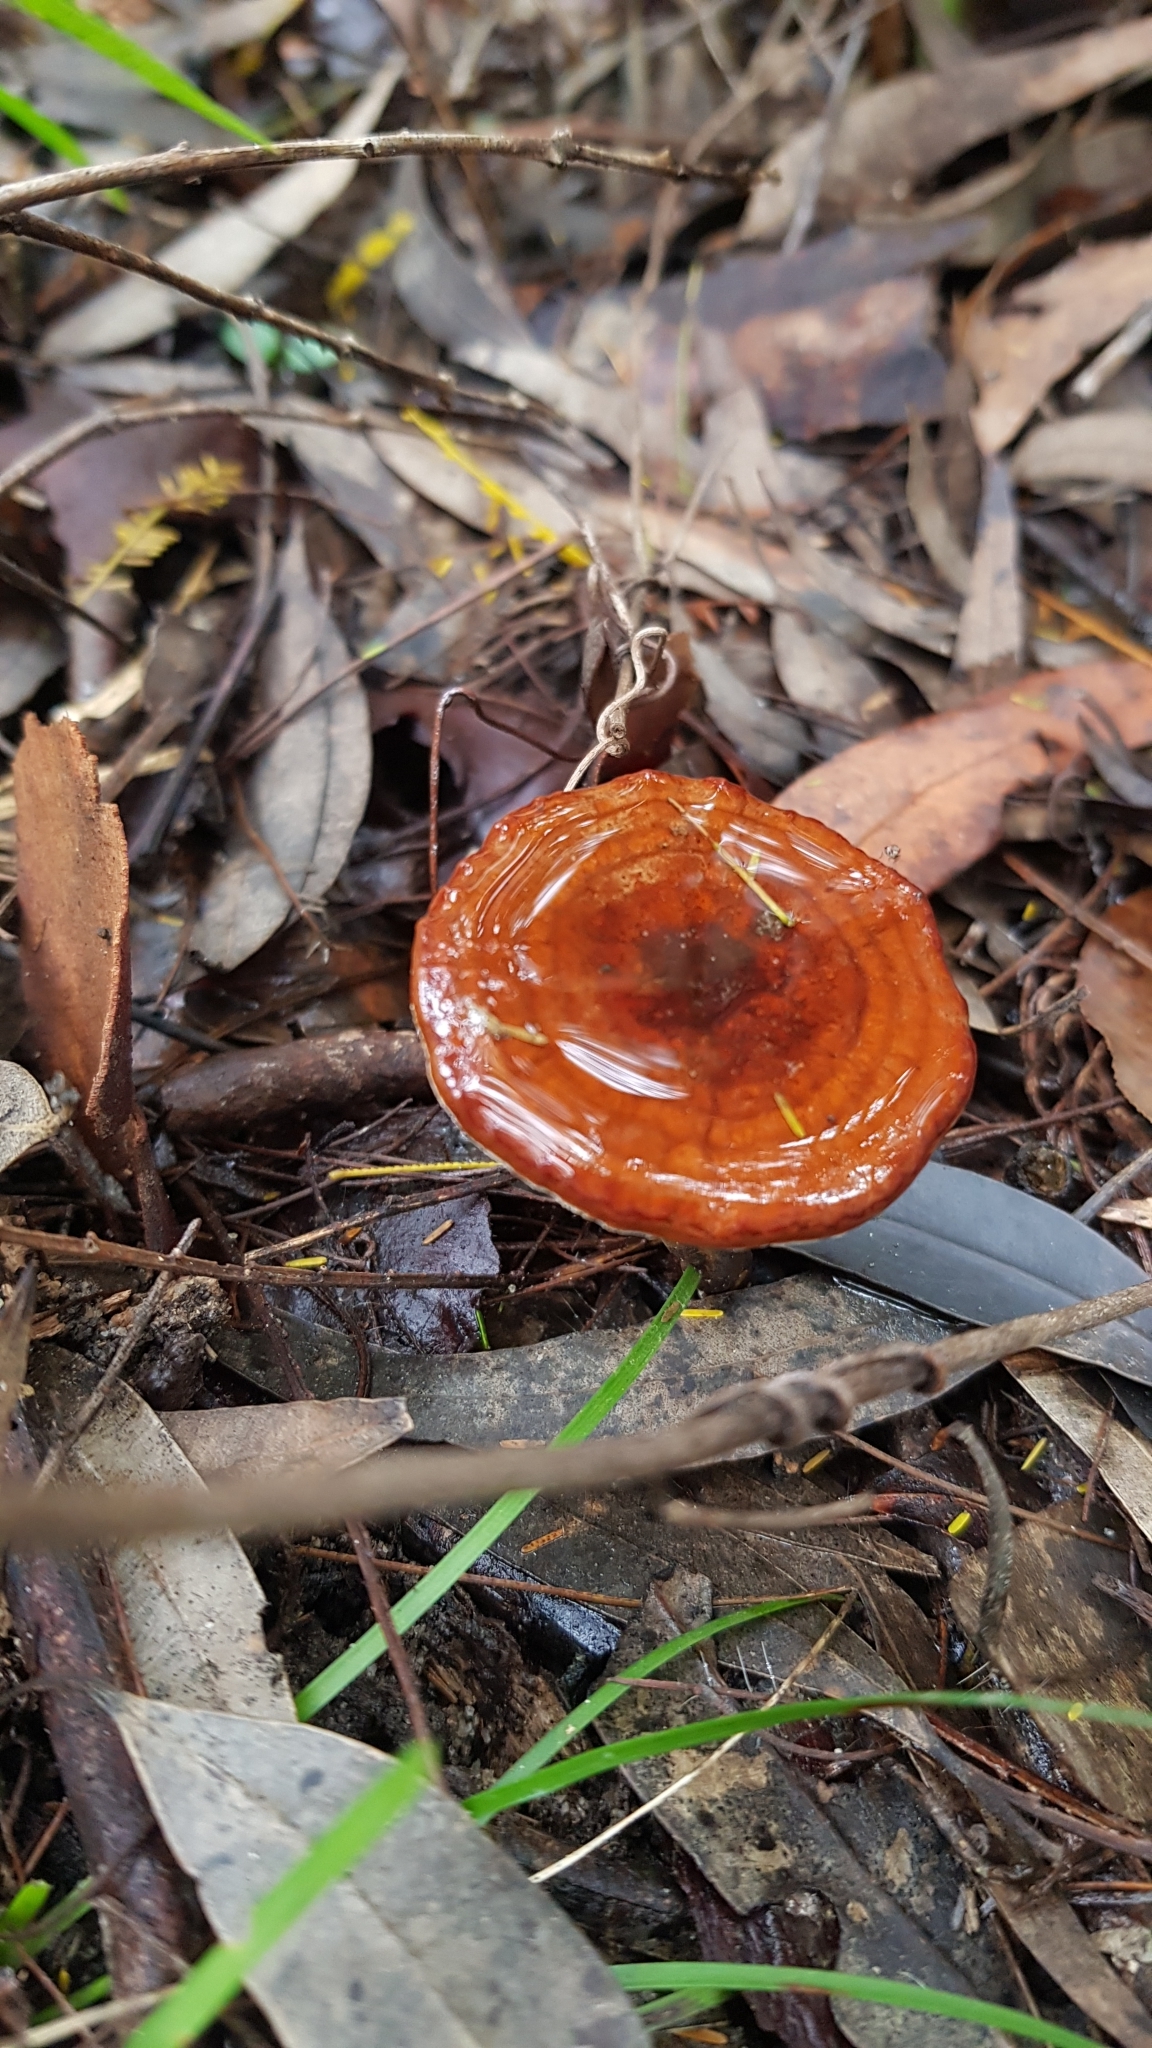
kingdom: Fungi
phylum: Basidiomycota
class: Agaricomycetes
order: Polyporales
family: Ganodermataceae
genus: Sanguinoderma
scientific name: Sanguinoderma rude
